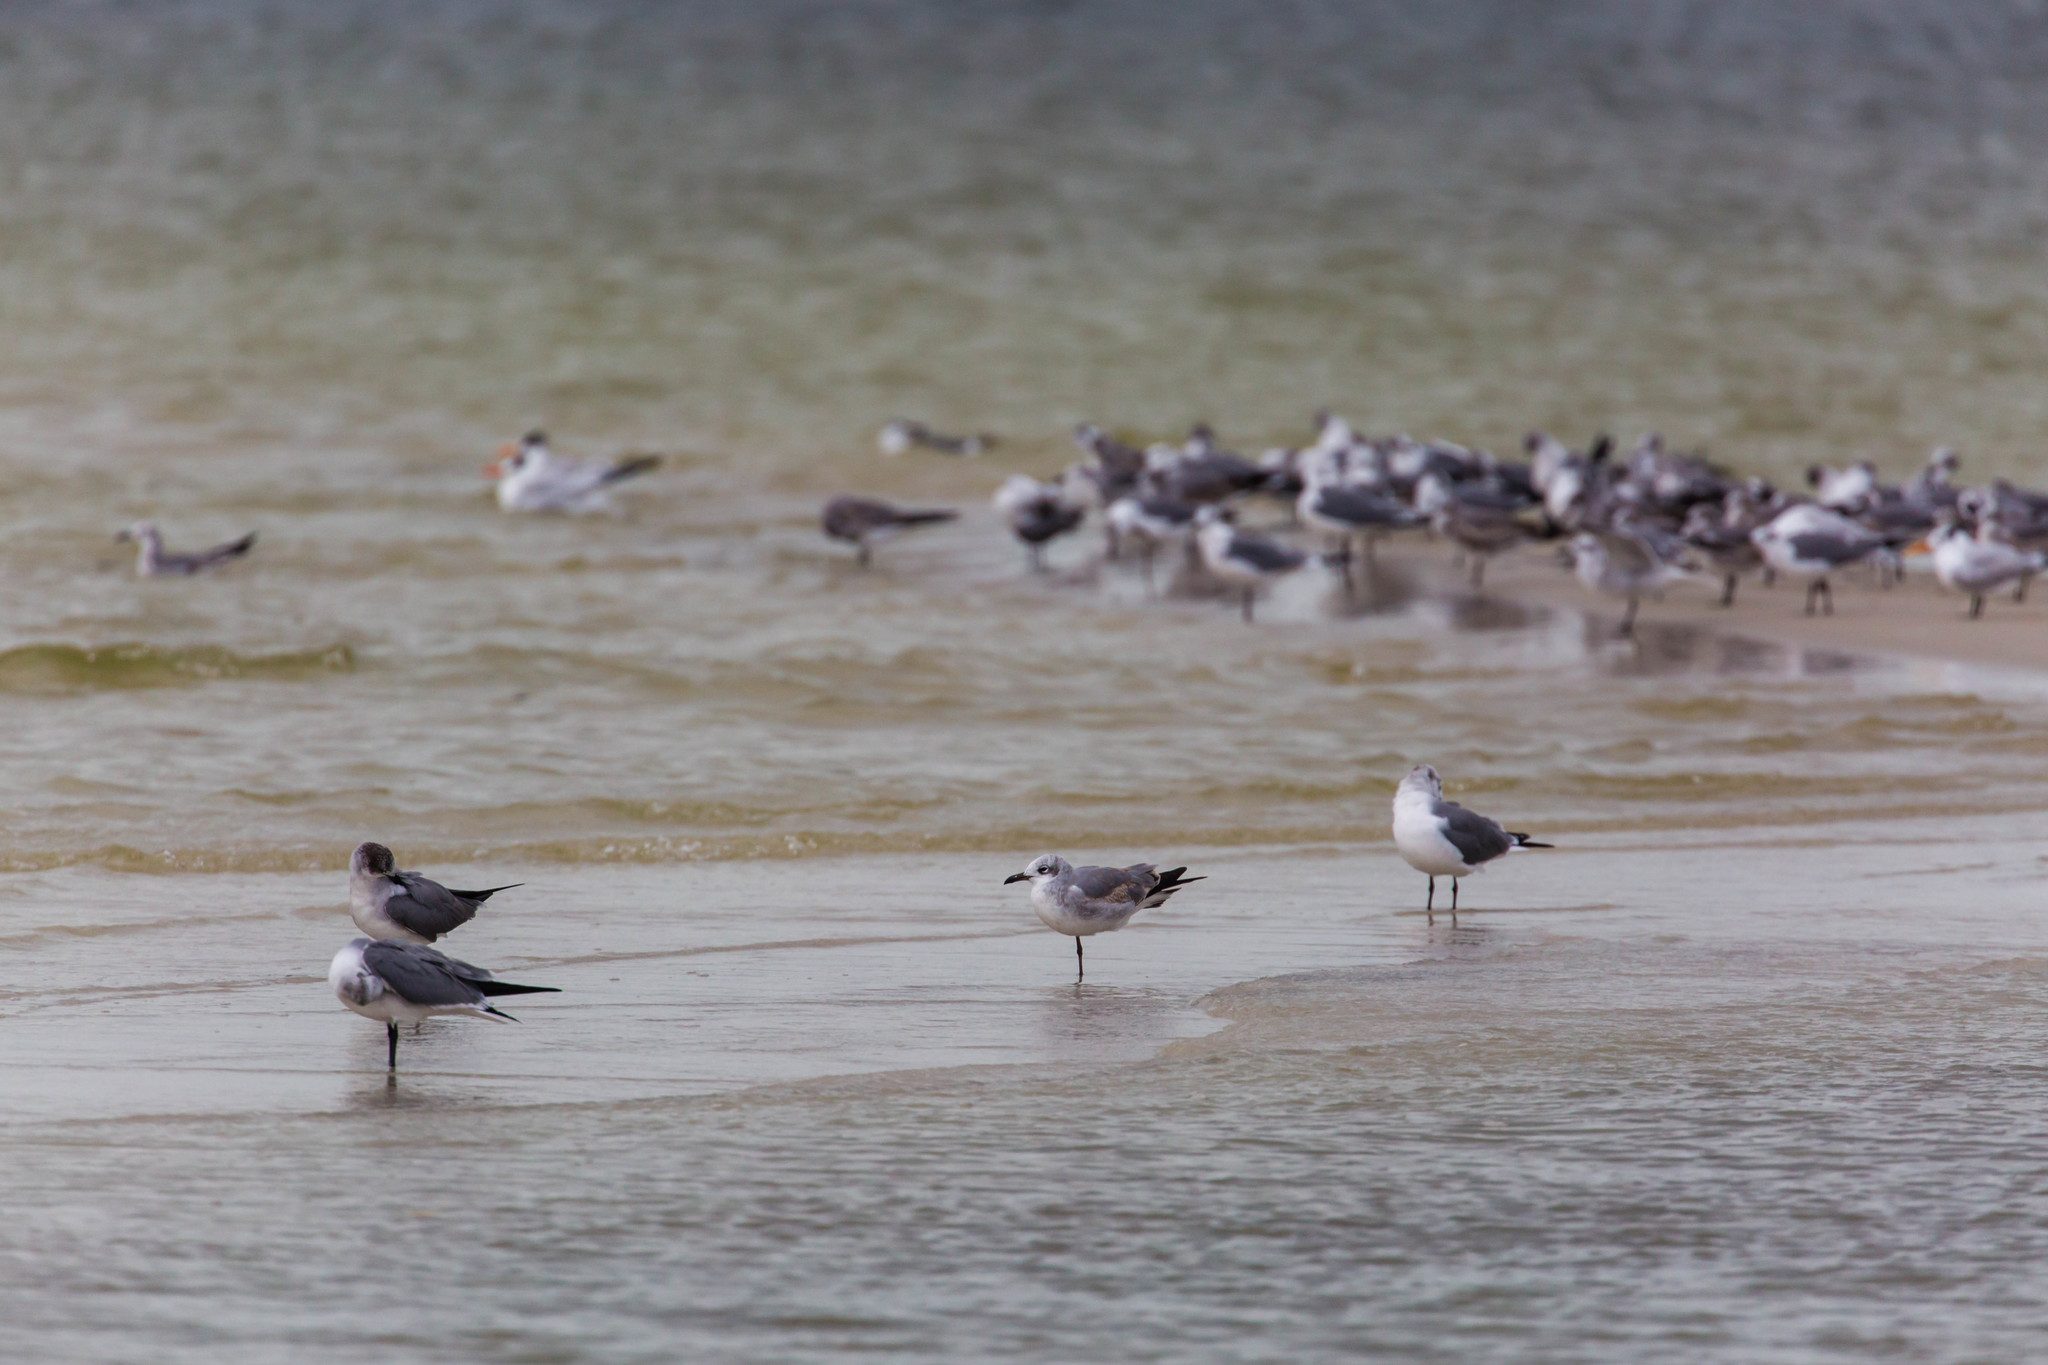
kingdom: Animalia
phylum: Chordata
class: Aves
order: Charadriiformes
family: Laridae
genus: Leucophaeus
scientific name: Leucophaeus atricilla
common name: Laughing gull
